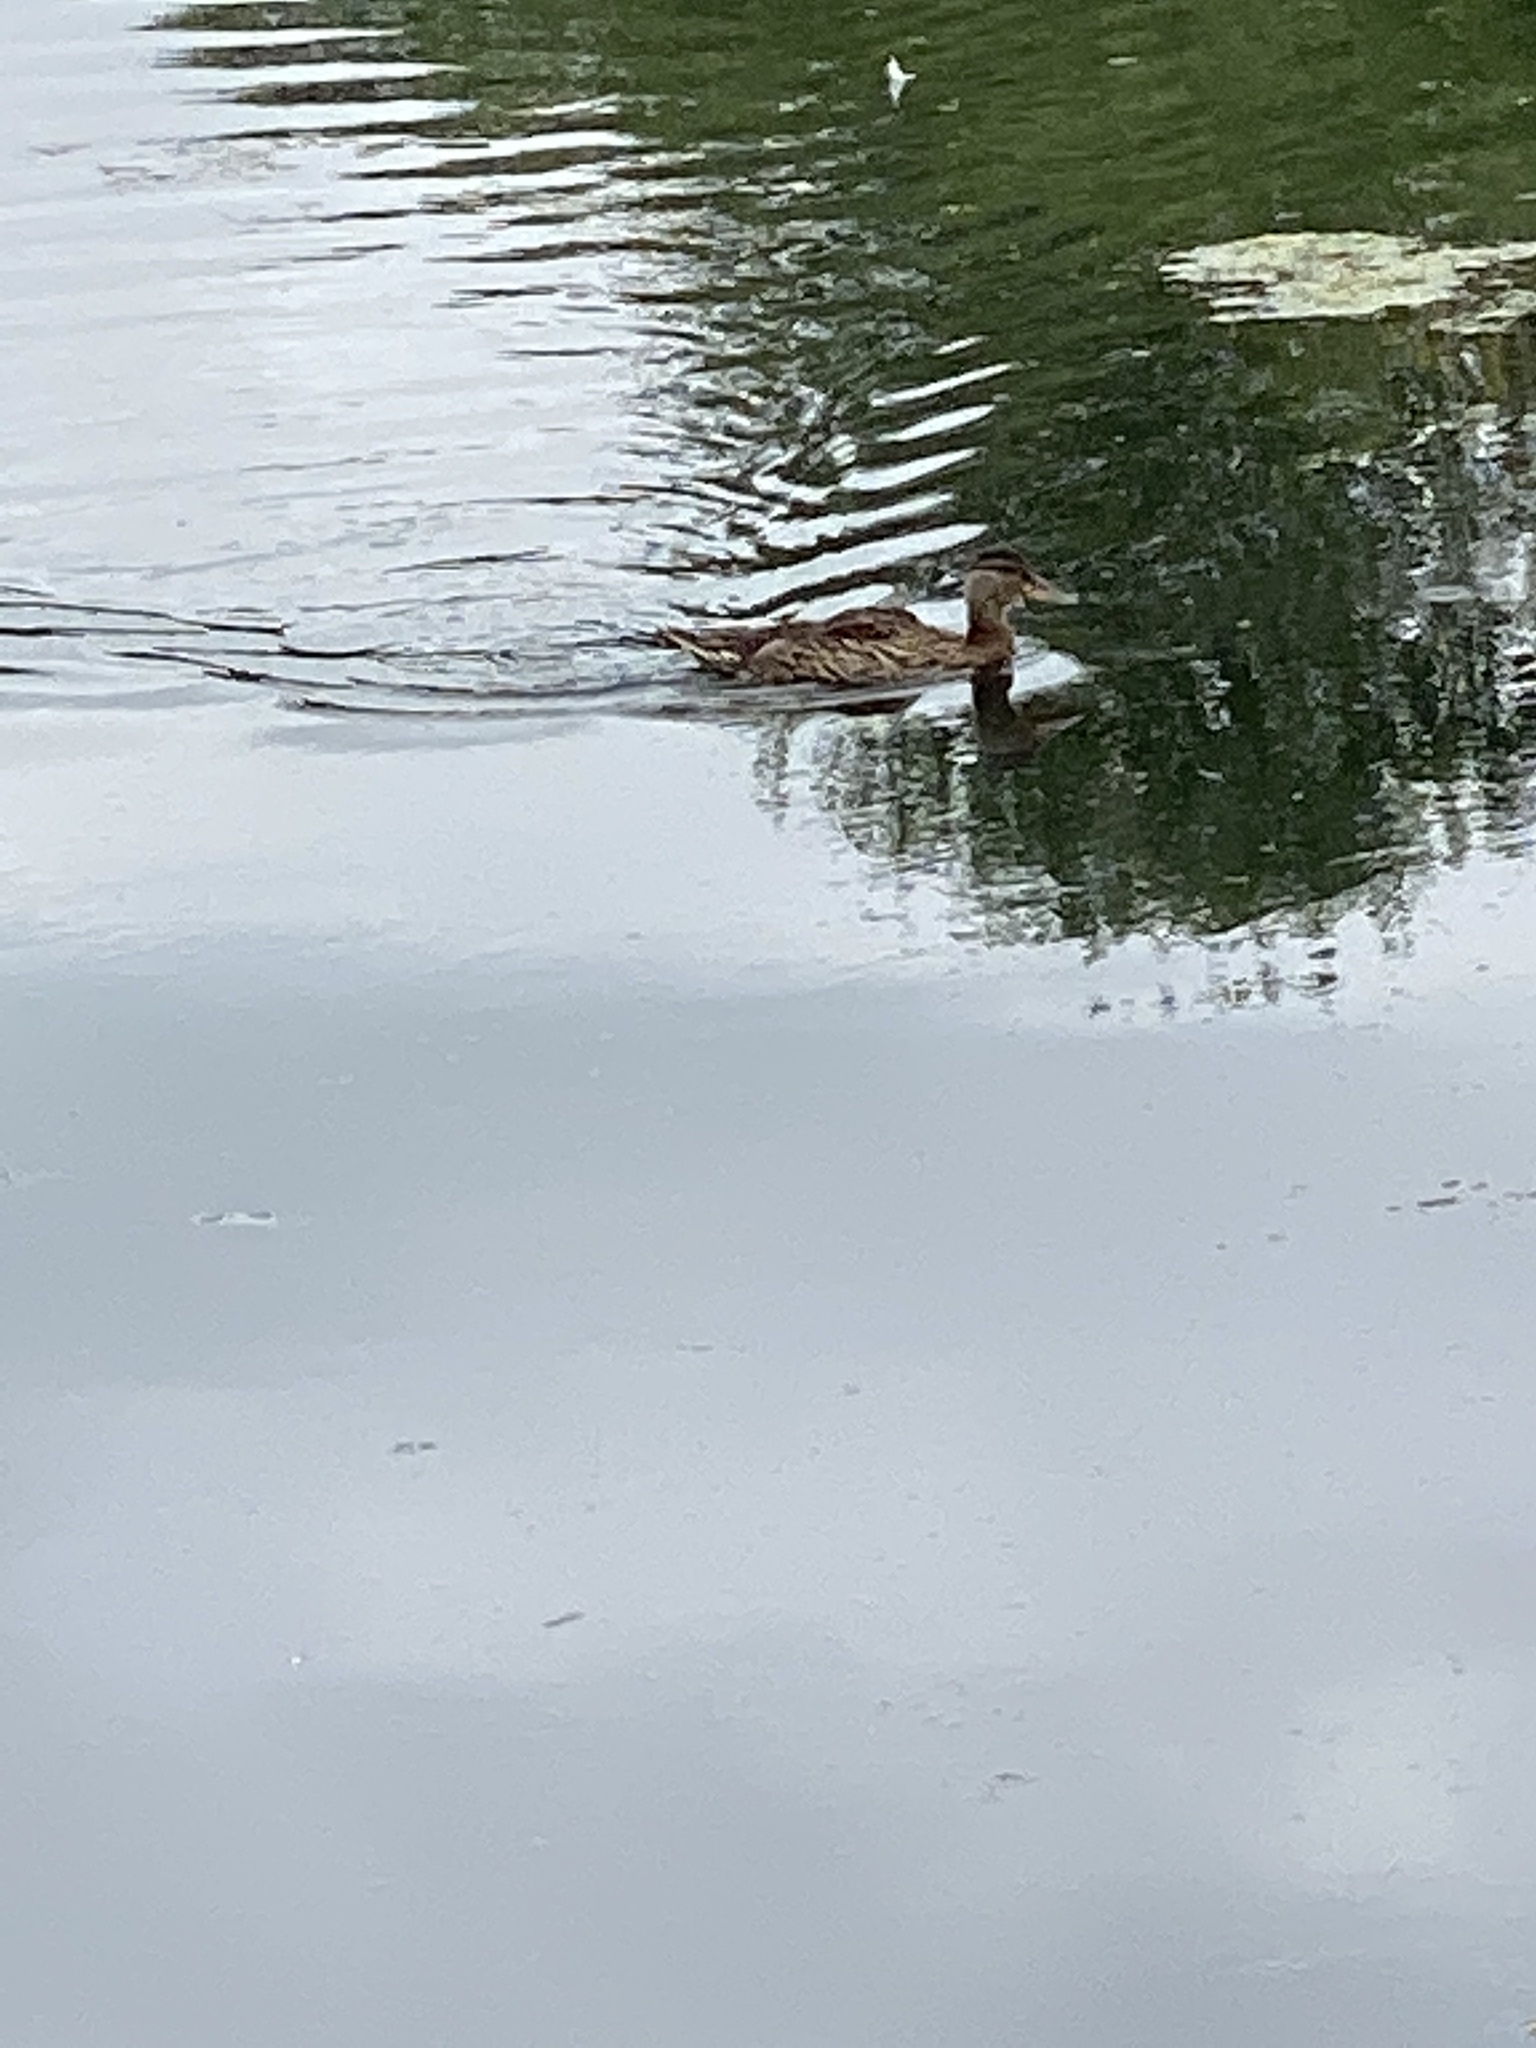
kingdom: Animalia
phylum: Chordata
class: Aves
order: Anseriformes
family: Anatidae
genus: Anas
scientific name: Anas platyrhynchos
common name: Mallard
